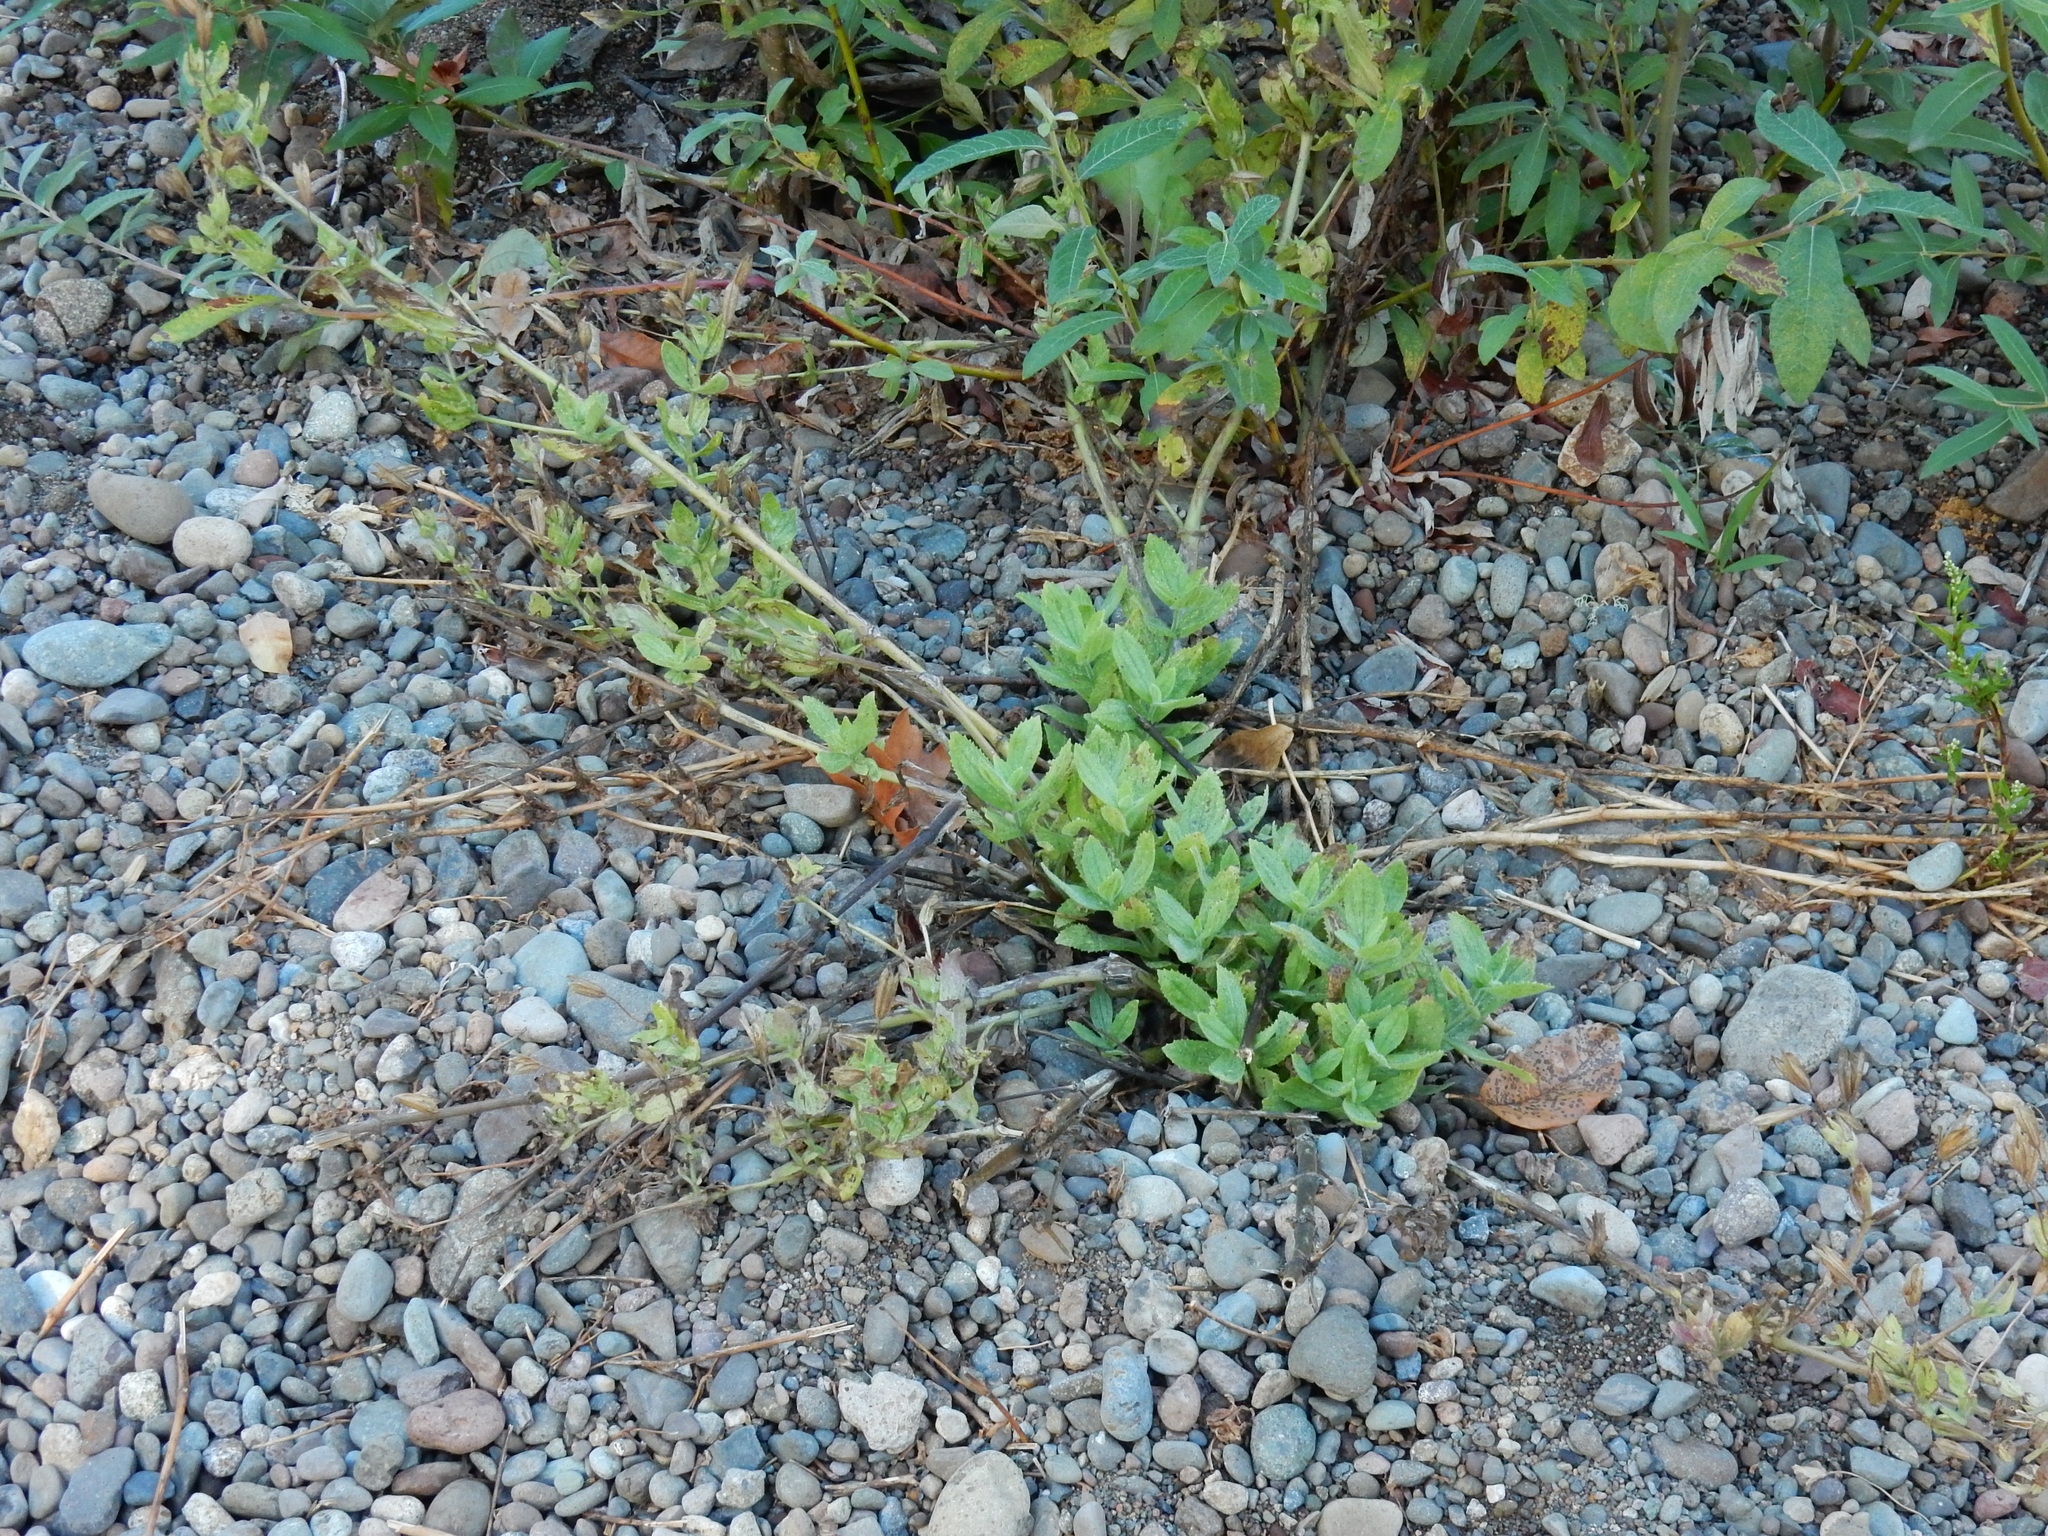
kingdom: Plantae
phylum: Tracheophyta
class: Magnoliopsida
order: Lamiales
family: Phrymaceae
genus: Erythranthe
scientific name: Erythranthe cardinalis
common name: Scarlet monkey-flower
